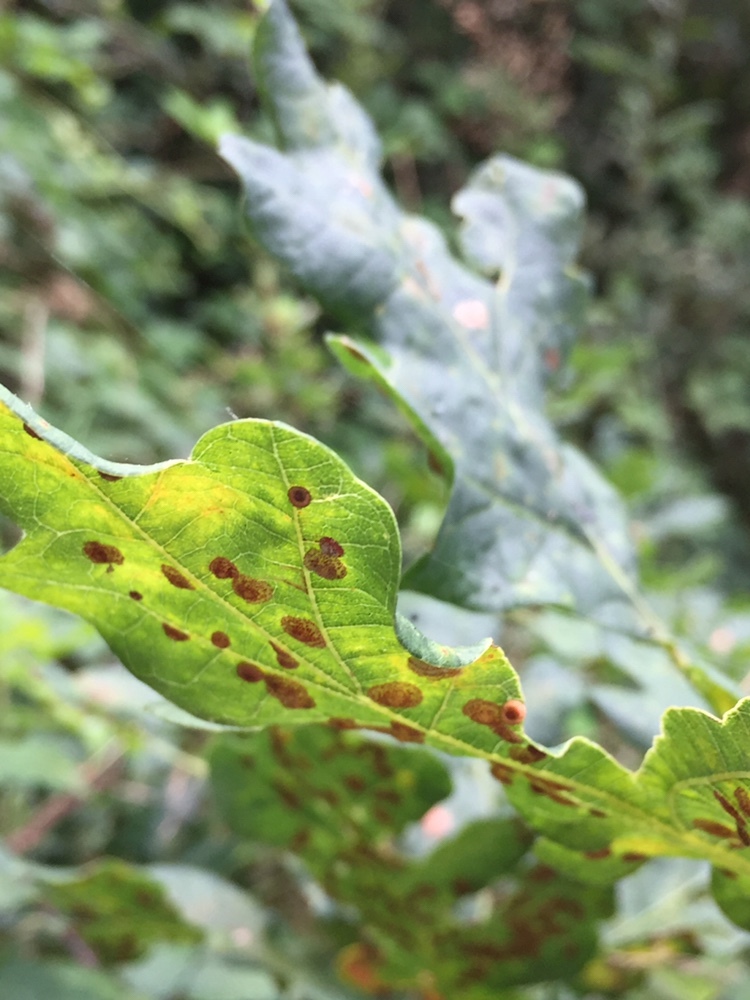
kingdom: Animalia
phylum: Arthropoda
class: Insecta
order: Hymenoptera
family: Cynipidae
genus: Neuroterus
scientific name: Neuroterus numismalis
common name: Silk-button spangle gall
